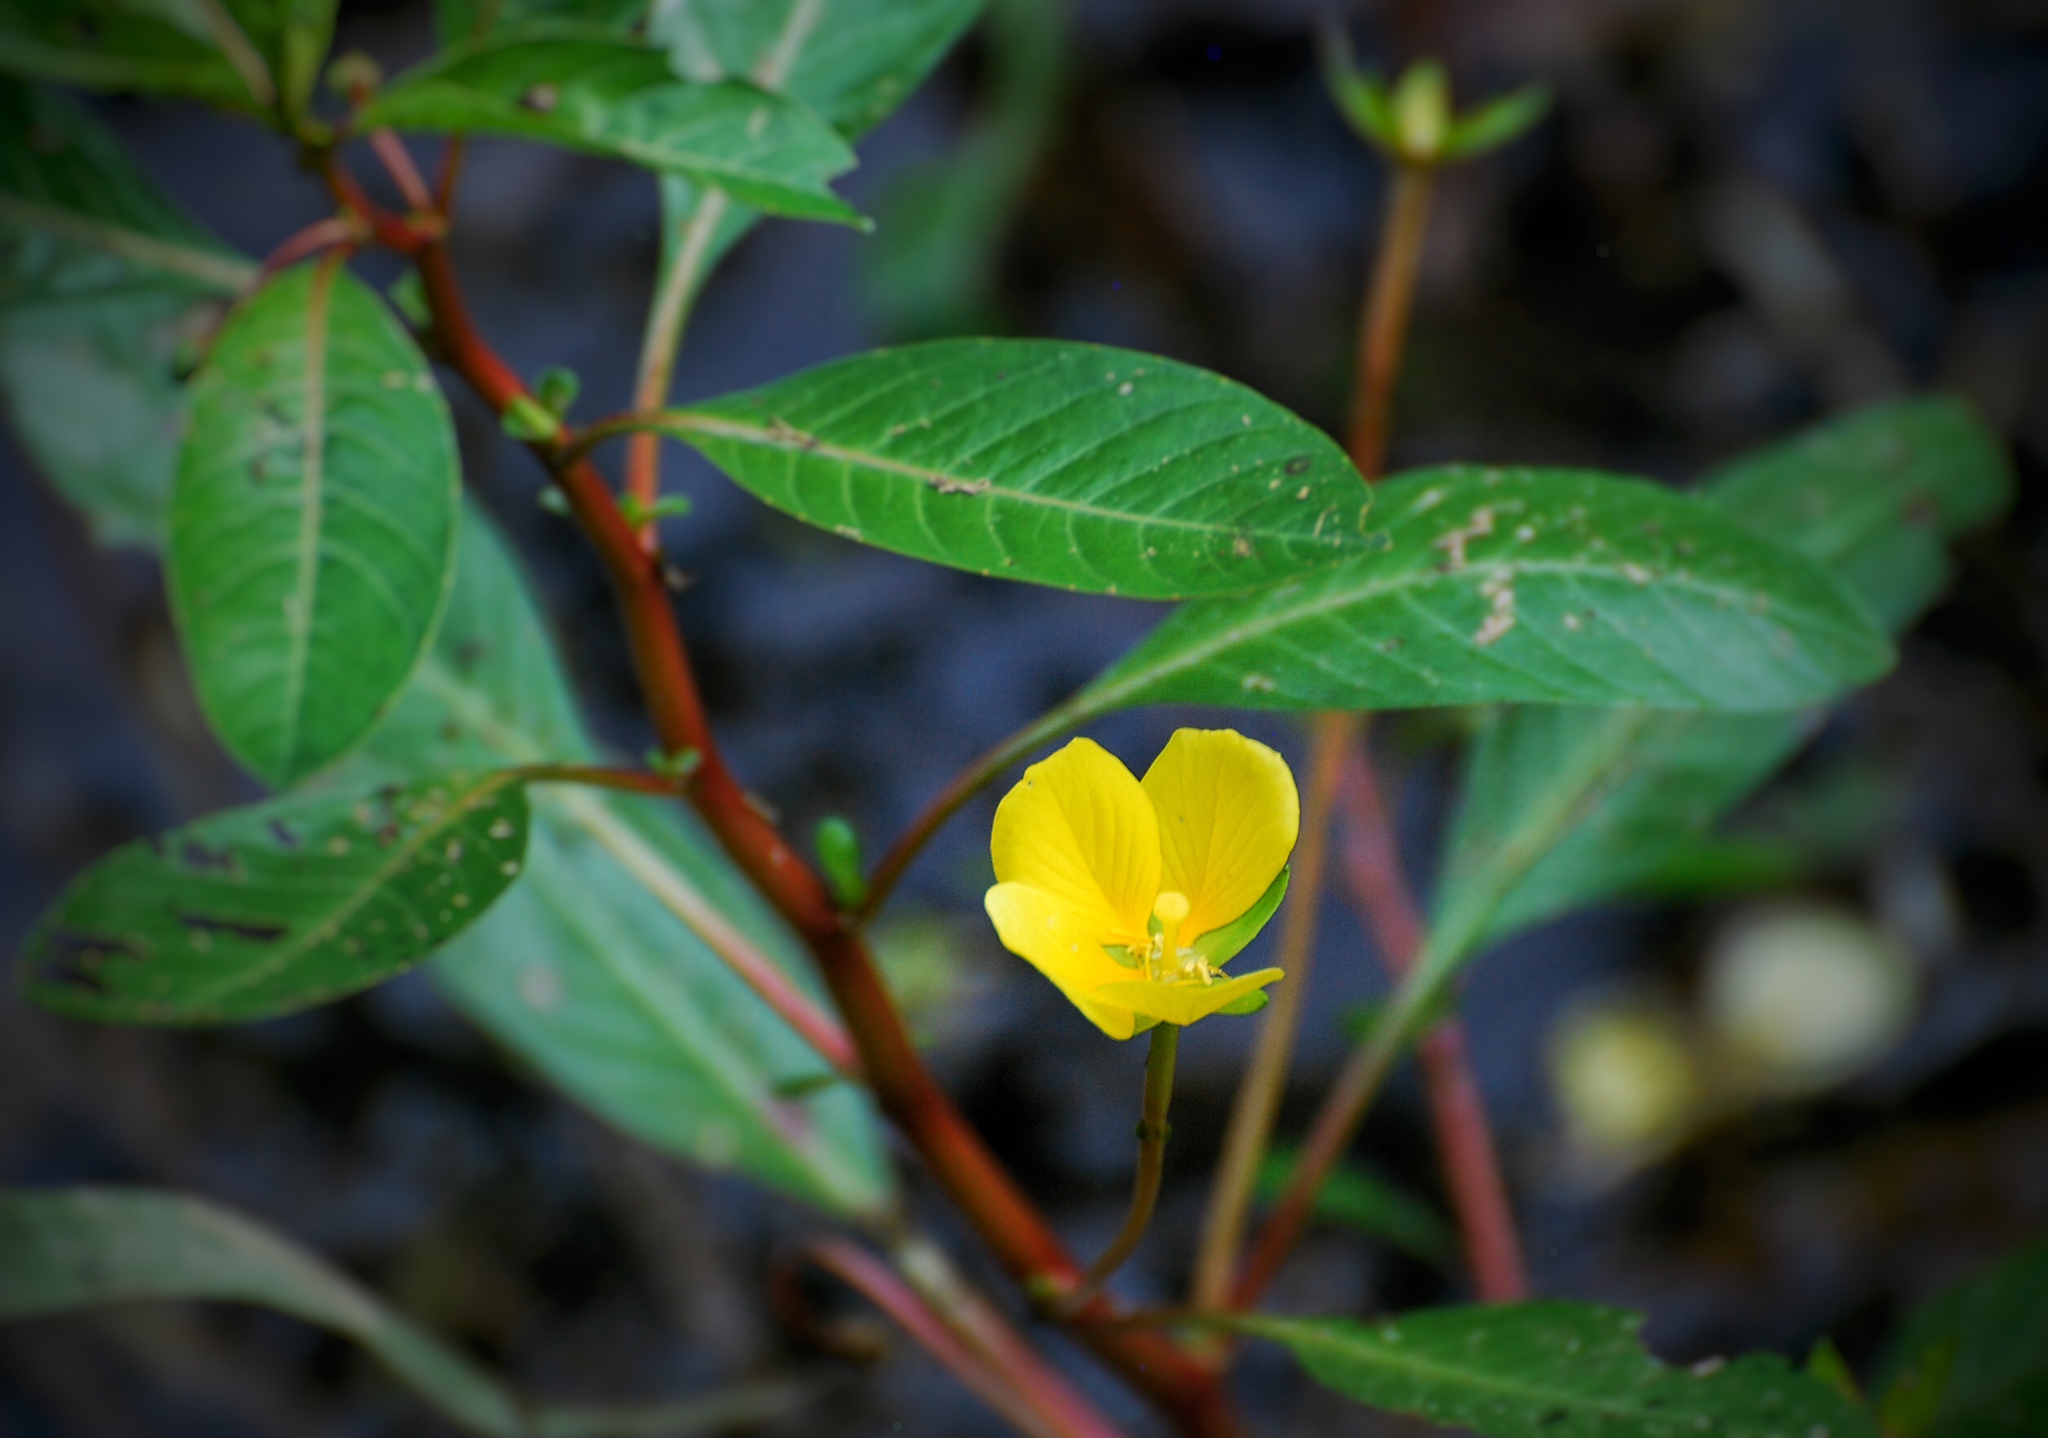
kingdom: Plantae
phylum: Tracheophyta
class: Magnoliopsida
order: Myrtales
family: Onagraceae
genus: Ludwigia
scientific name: Ludwigia peploides
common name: Floating primrose-willow
